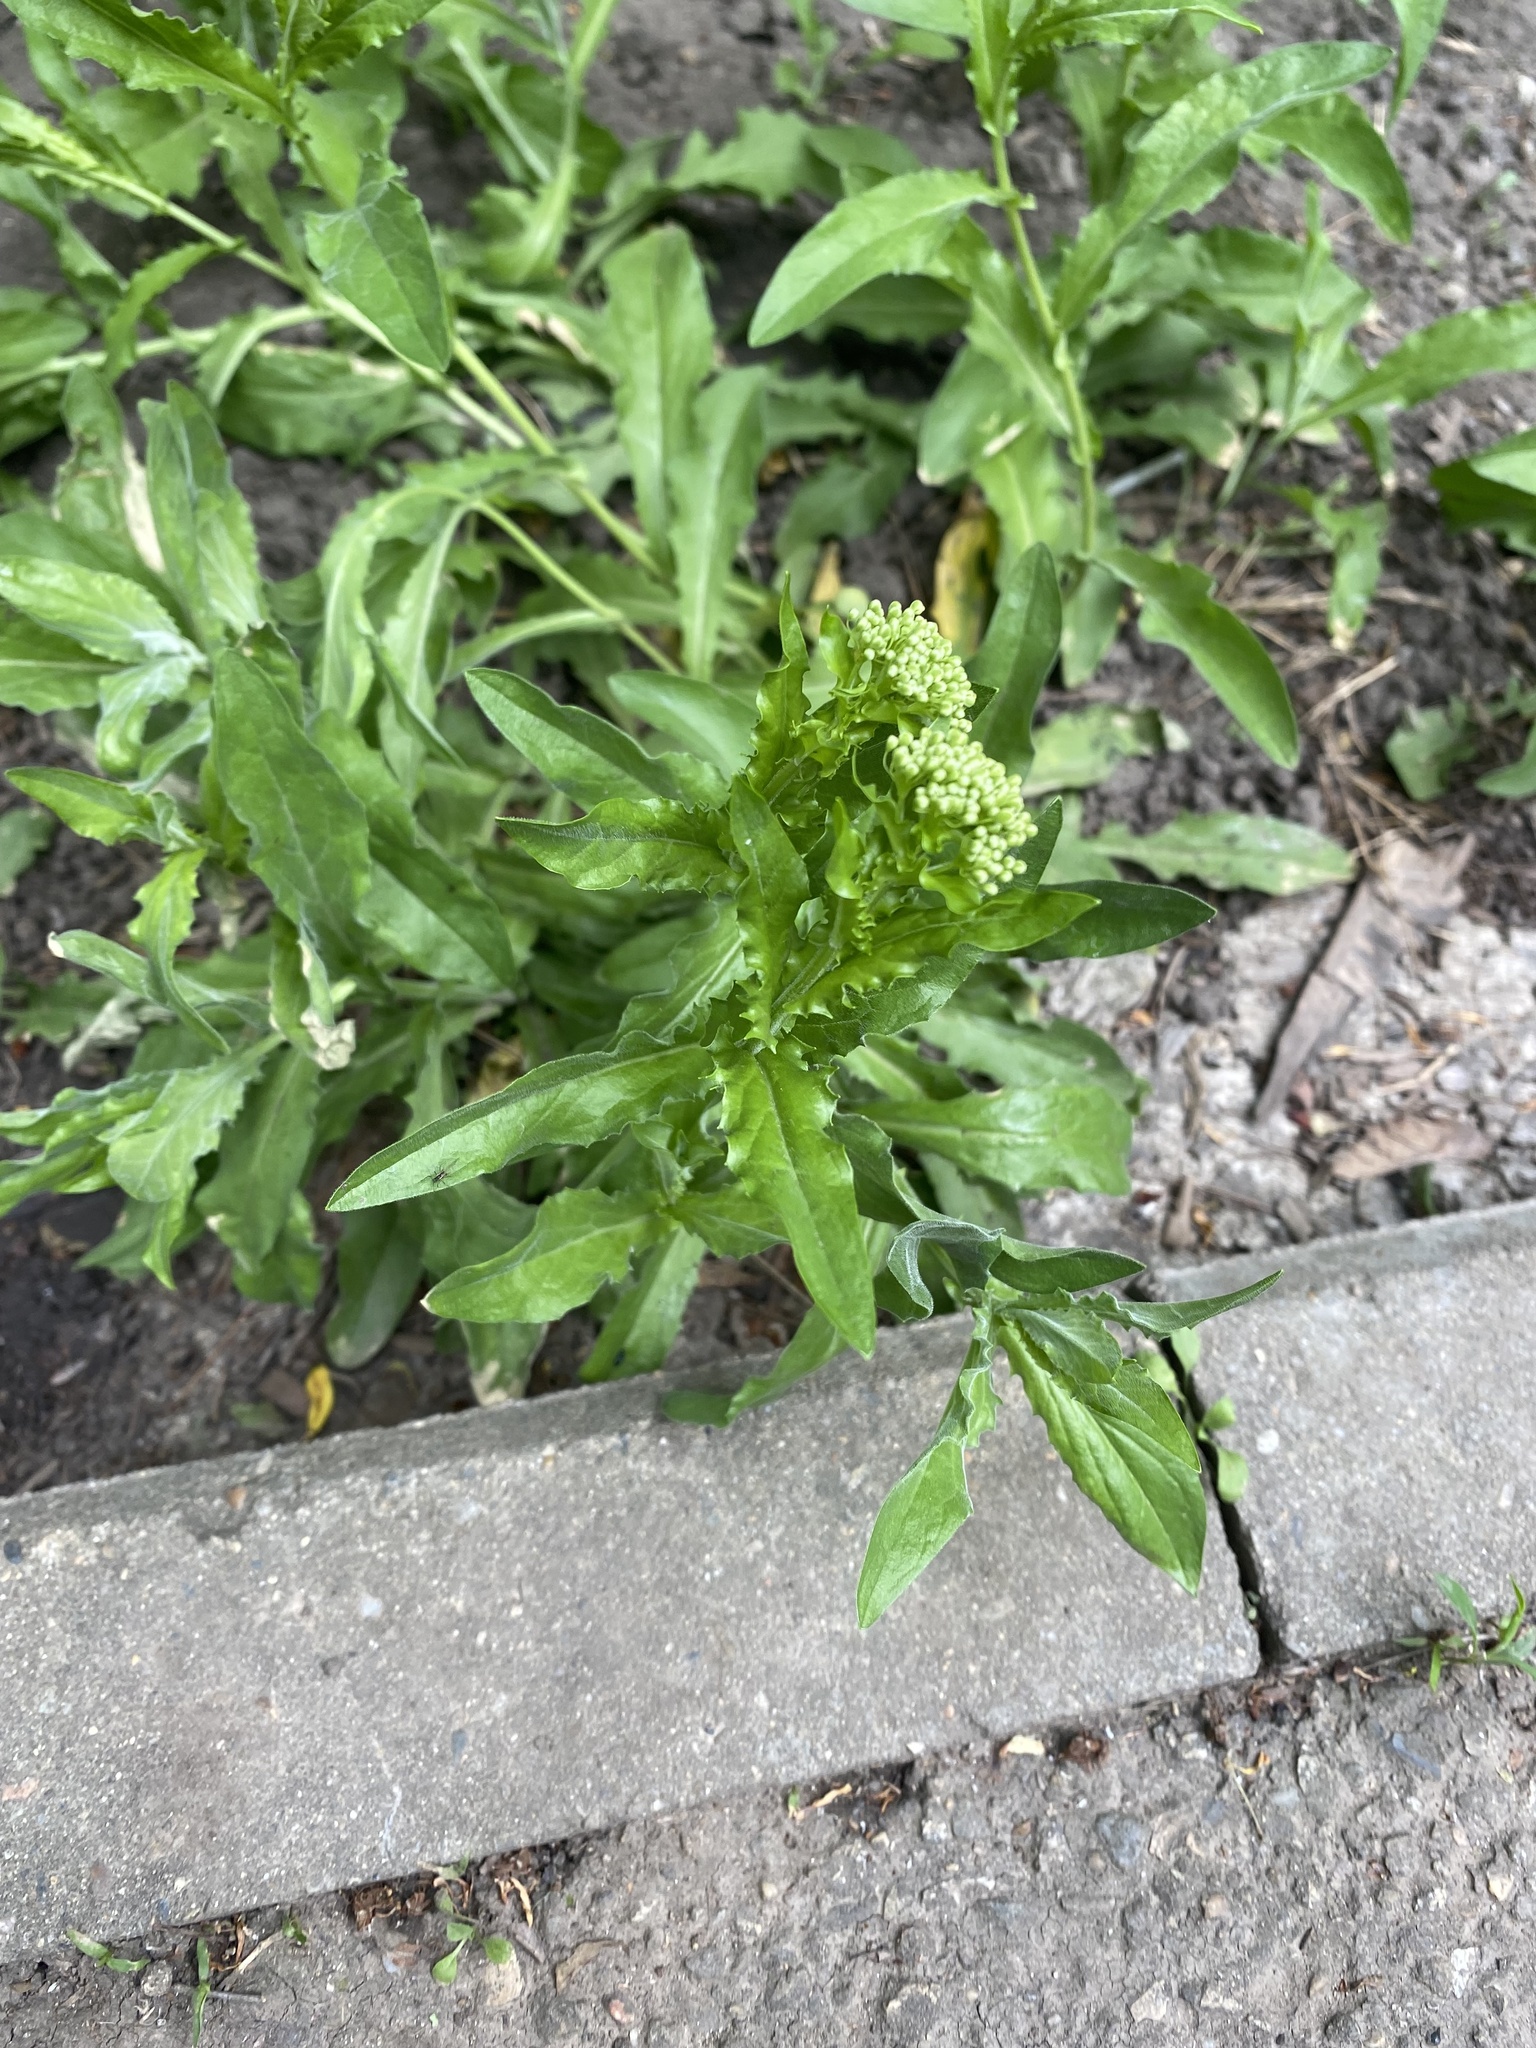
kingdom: Plantae
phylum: Tracheophyta
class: Magnoliopsida
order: Brassicales
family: Brassicaceae
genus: Lepidium
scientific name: Lepidium draba
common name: Hoary cress
